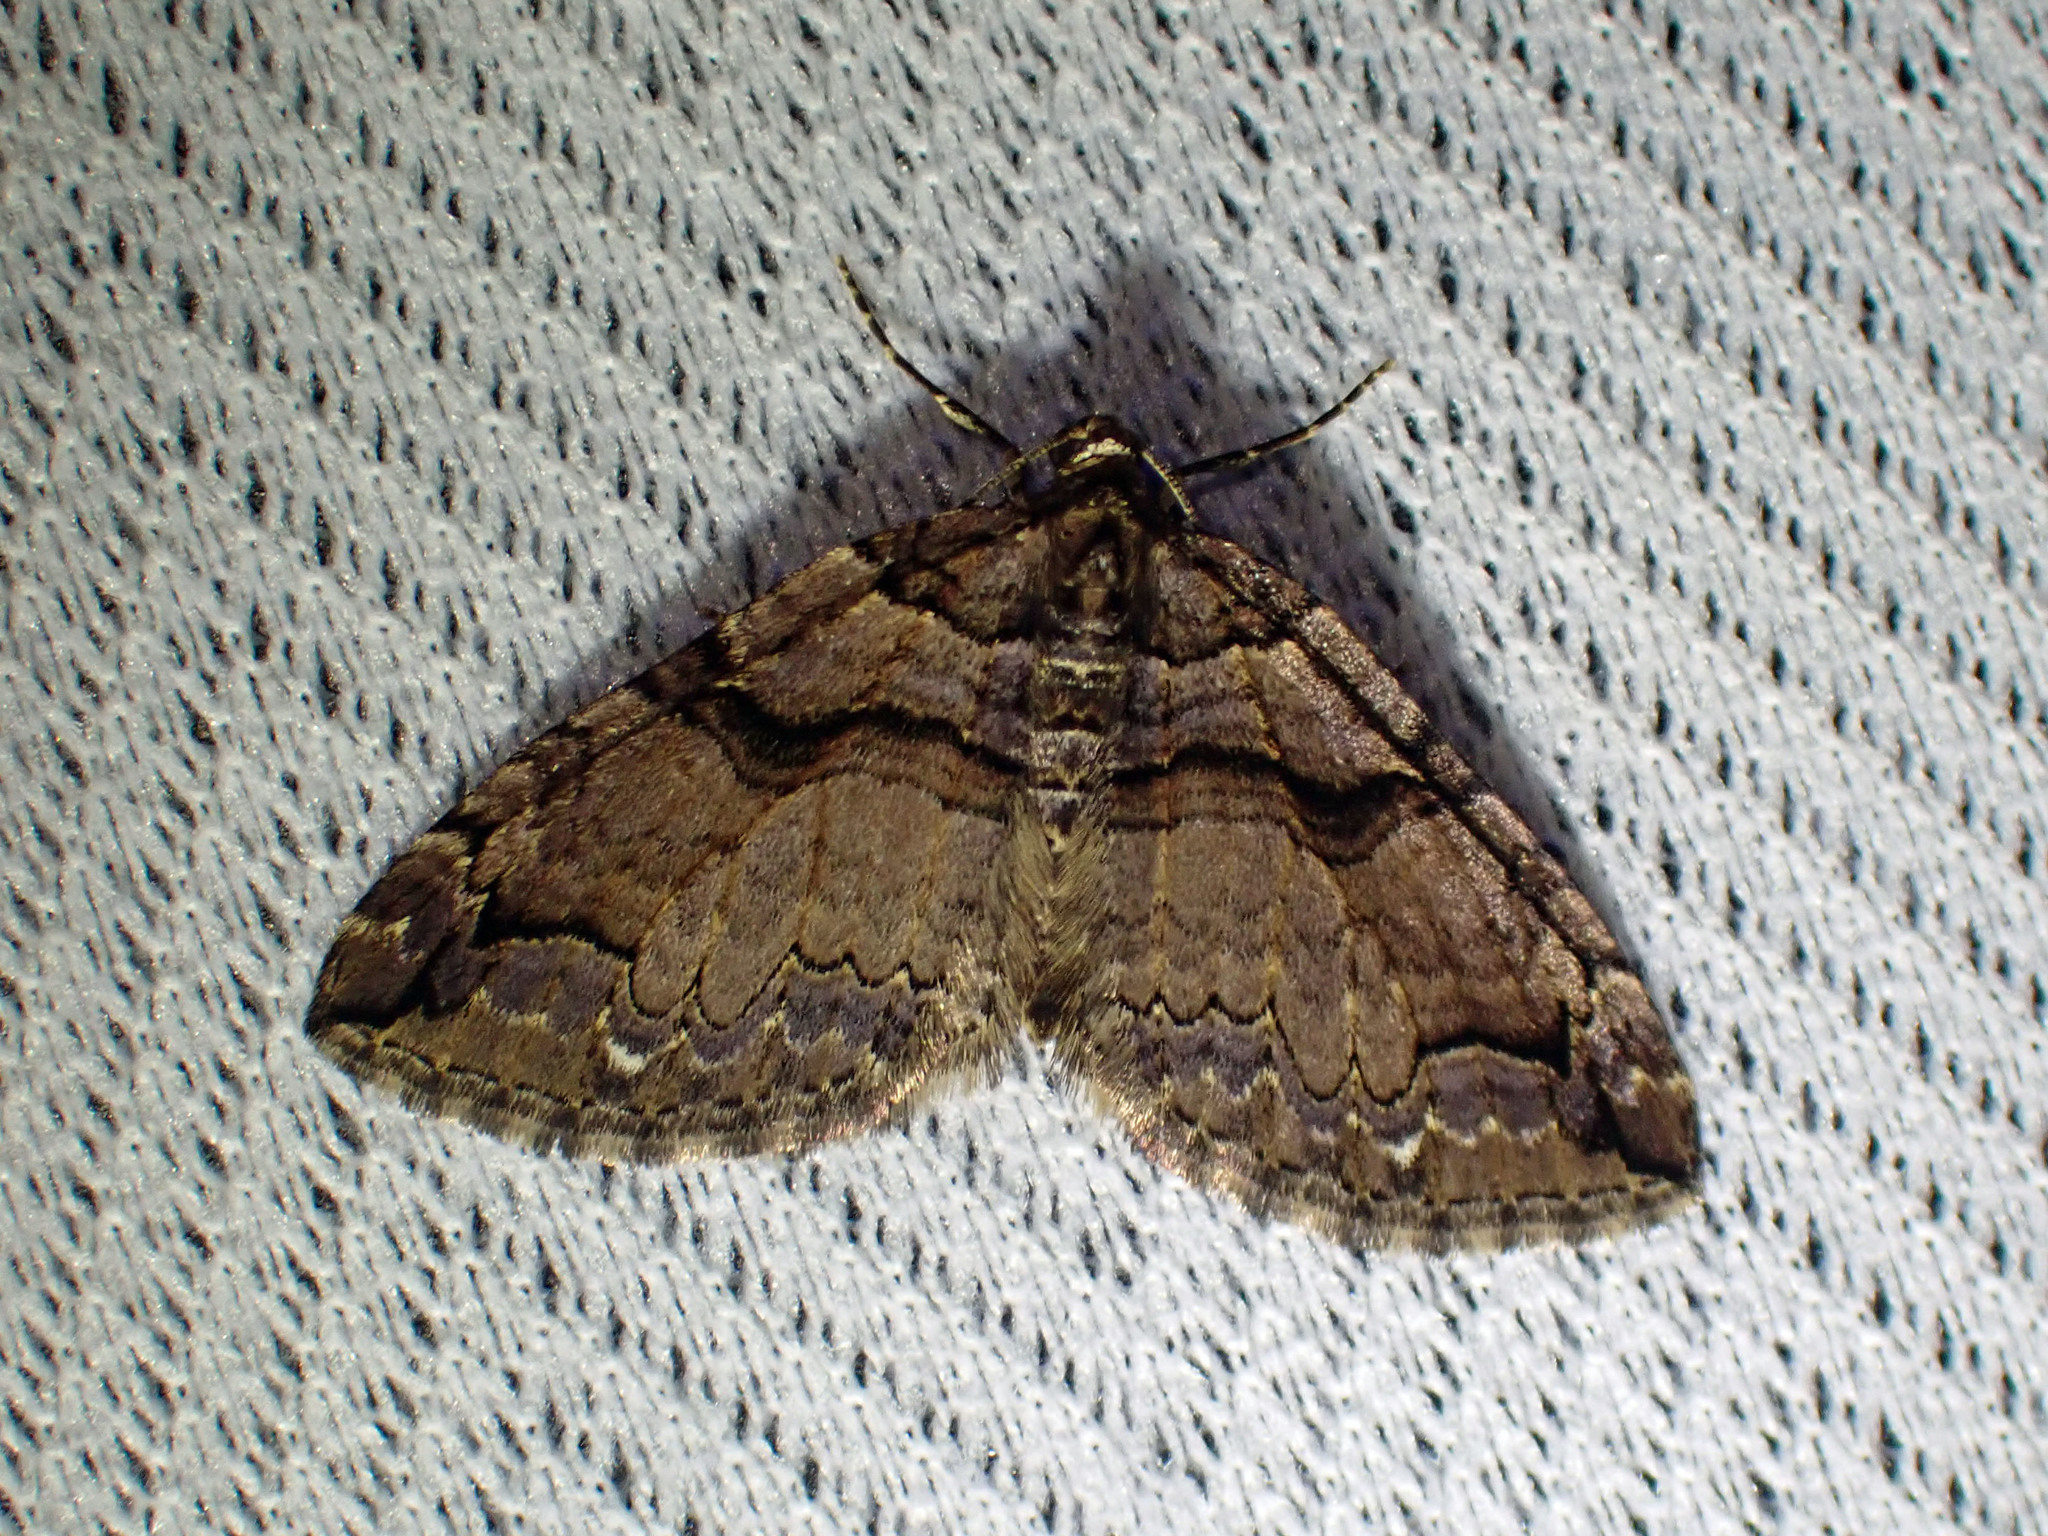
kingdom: Animalia
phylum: Arthropoda
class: Insecta
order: Lepidoptera
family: Geometridae
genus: Anticlea
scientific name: Anticlea vasiliata
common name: Variable carpet
